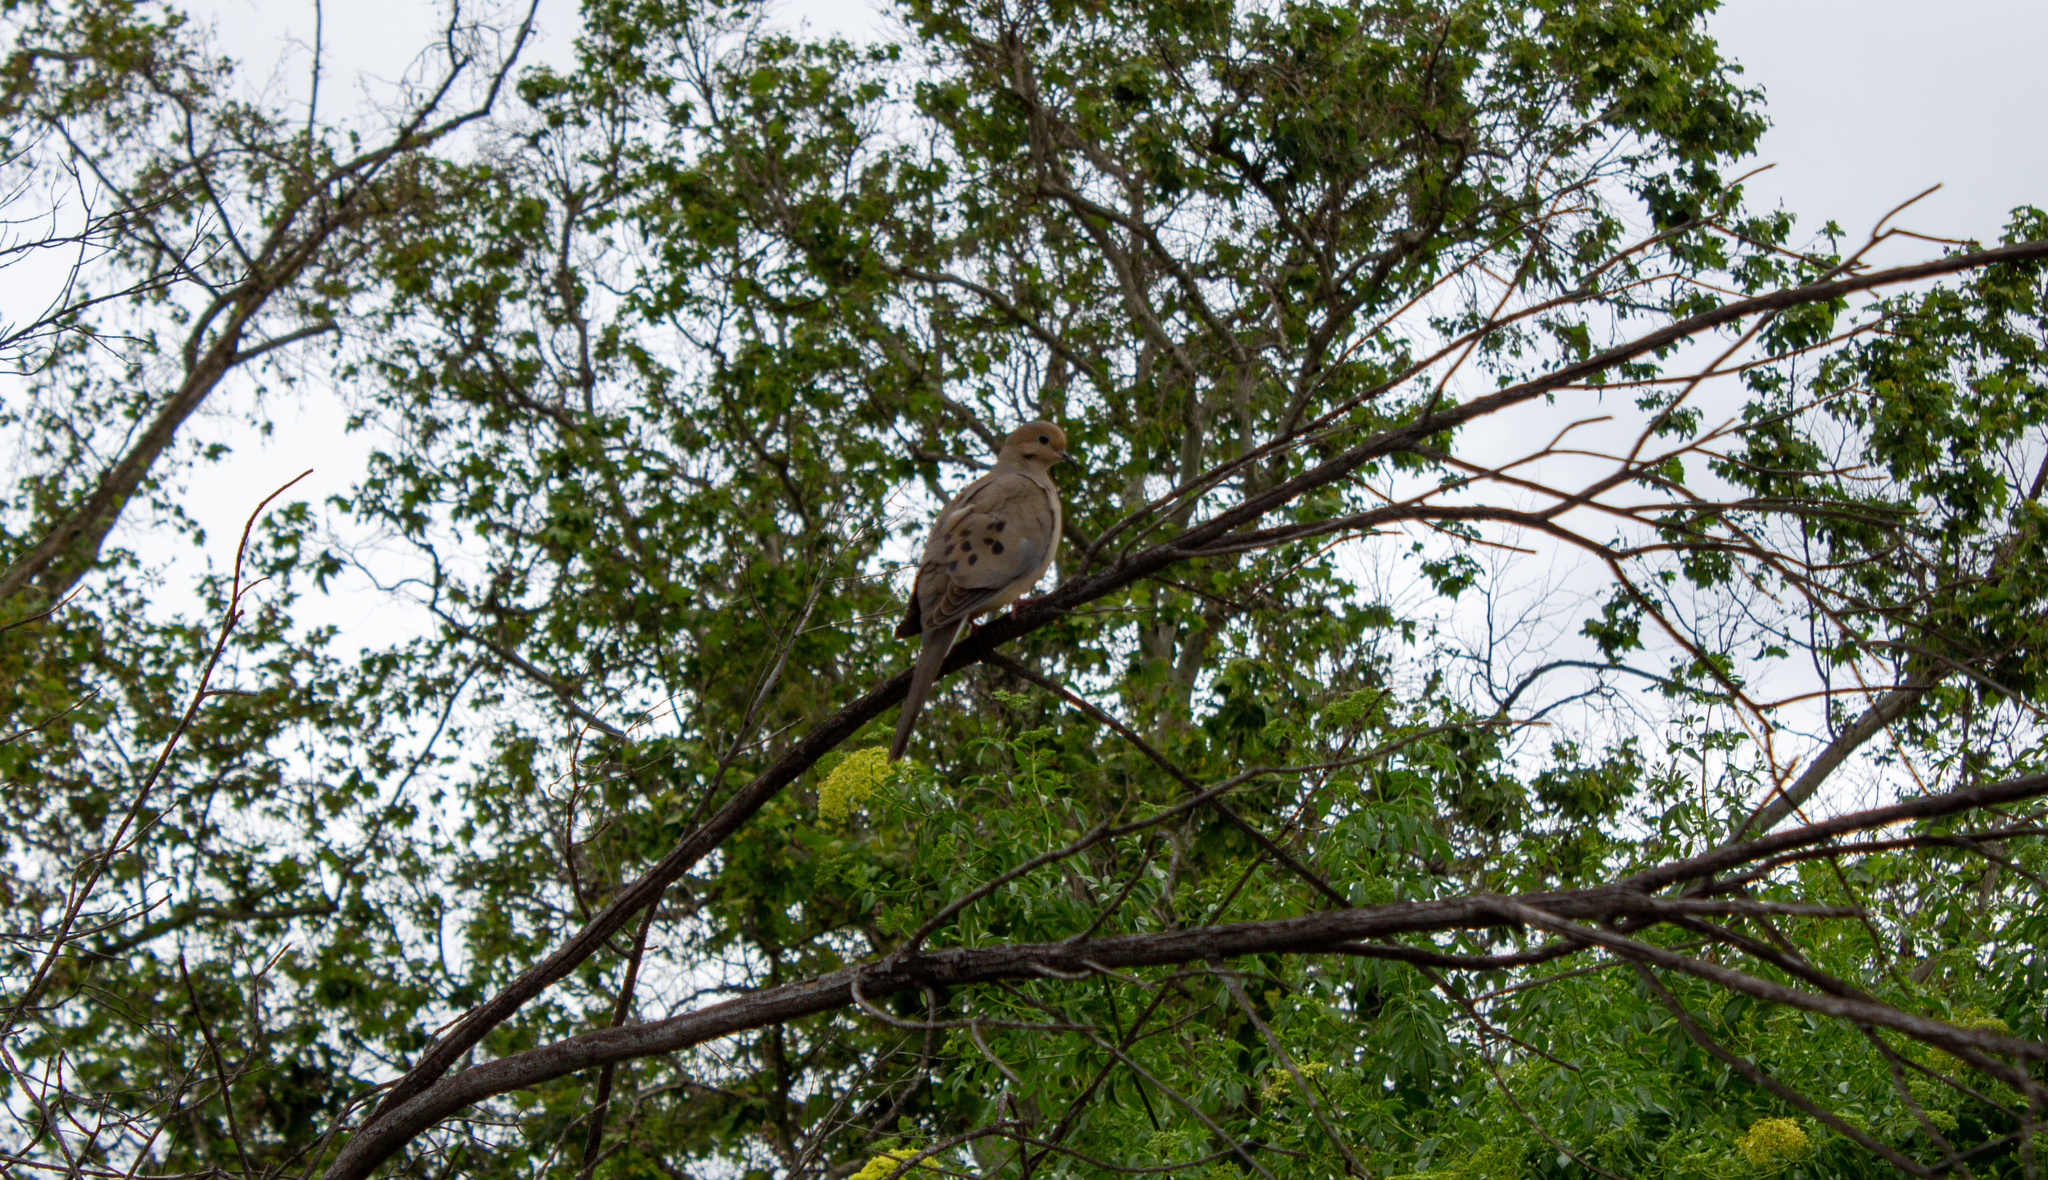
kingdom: Animalia
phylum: Chordata
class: Aves
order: Columbiformes
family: Columbidae
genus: Zenaida
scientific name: Zenaida macroura
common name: Mourning dove
